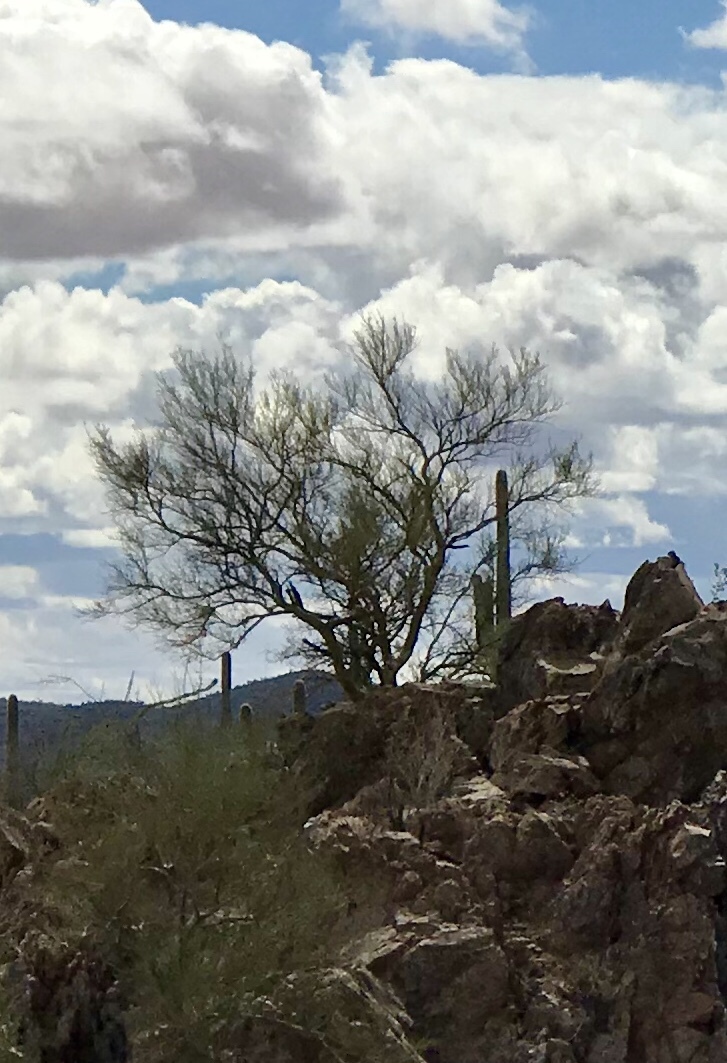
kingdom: Plantae
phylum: Tracheophyta
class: Magnoliopsida
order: Fabales
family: Fabaceae
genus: Parkinsonia
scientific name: Parkinsonia microphylla
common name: Yellow paloverde
